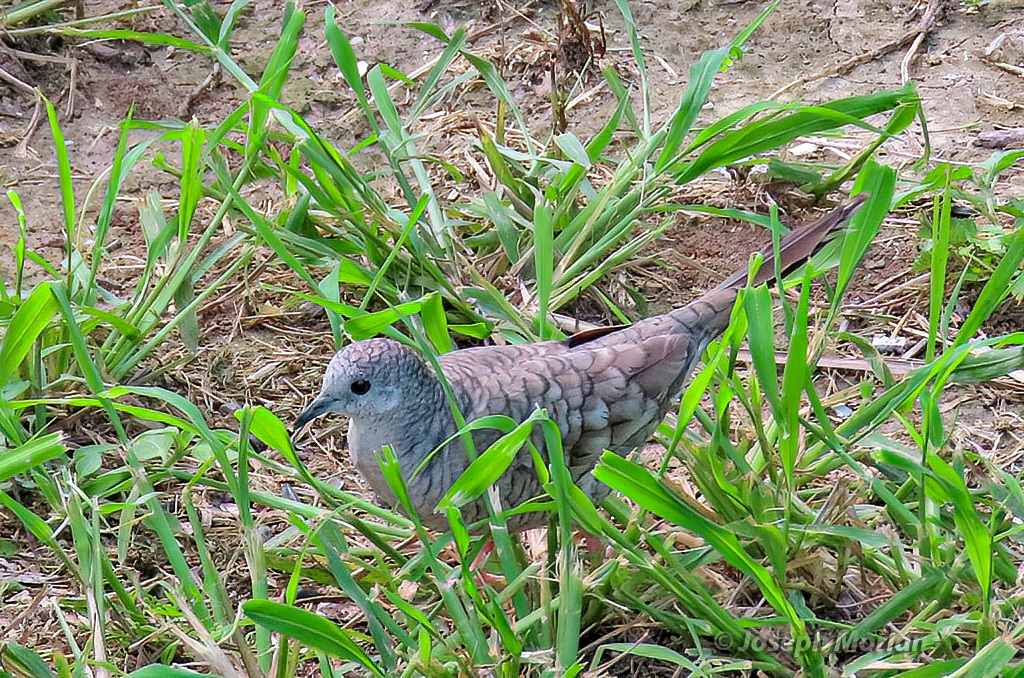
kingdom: Animalia
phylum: Chordata
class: Aves
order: Columbiformes
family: Columbidae
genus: Columbina
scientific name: Columbina inca
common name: Inca dove
